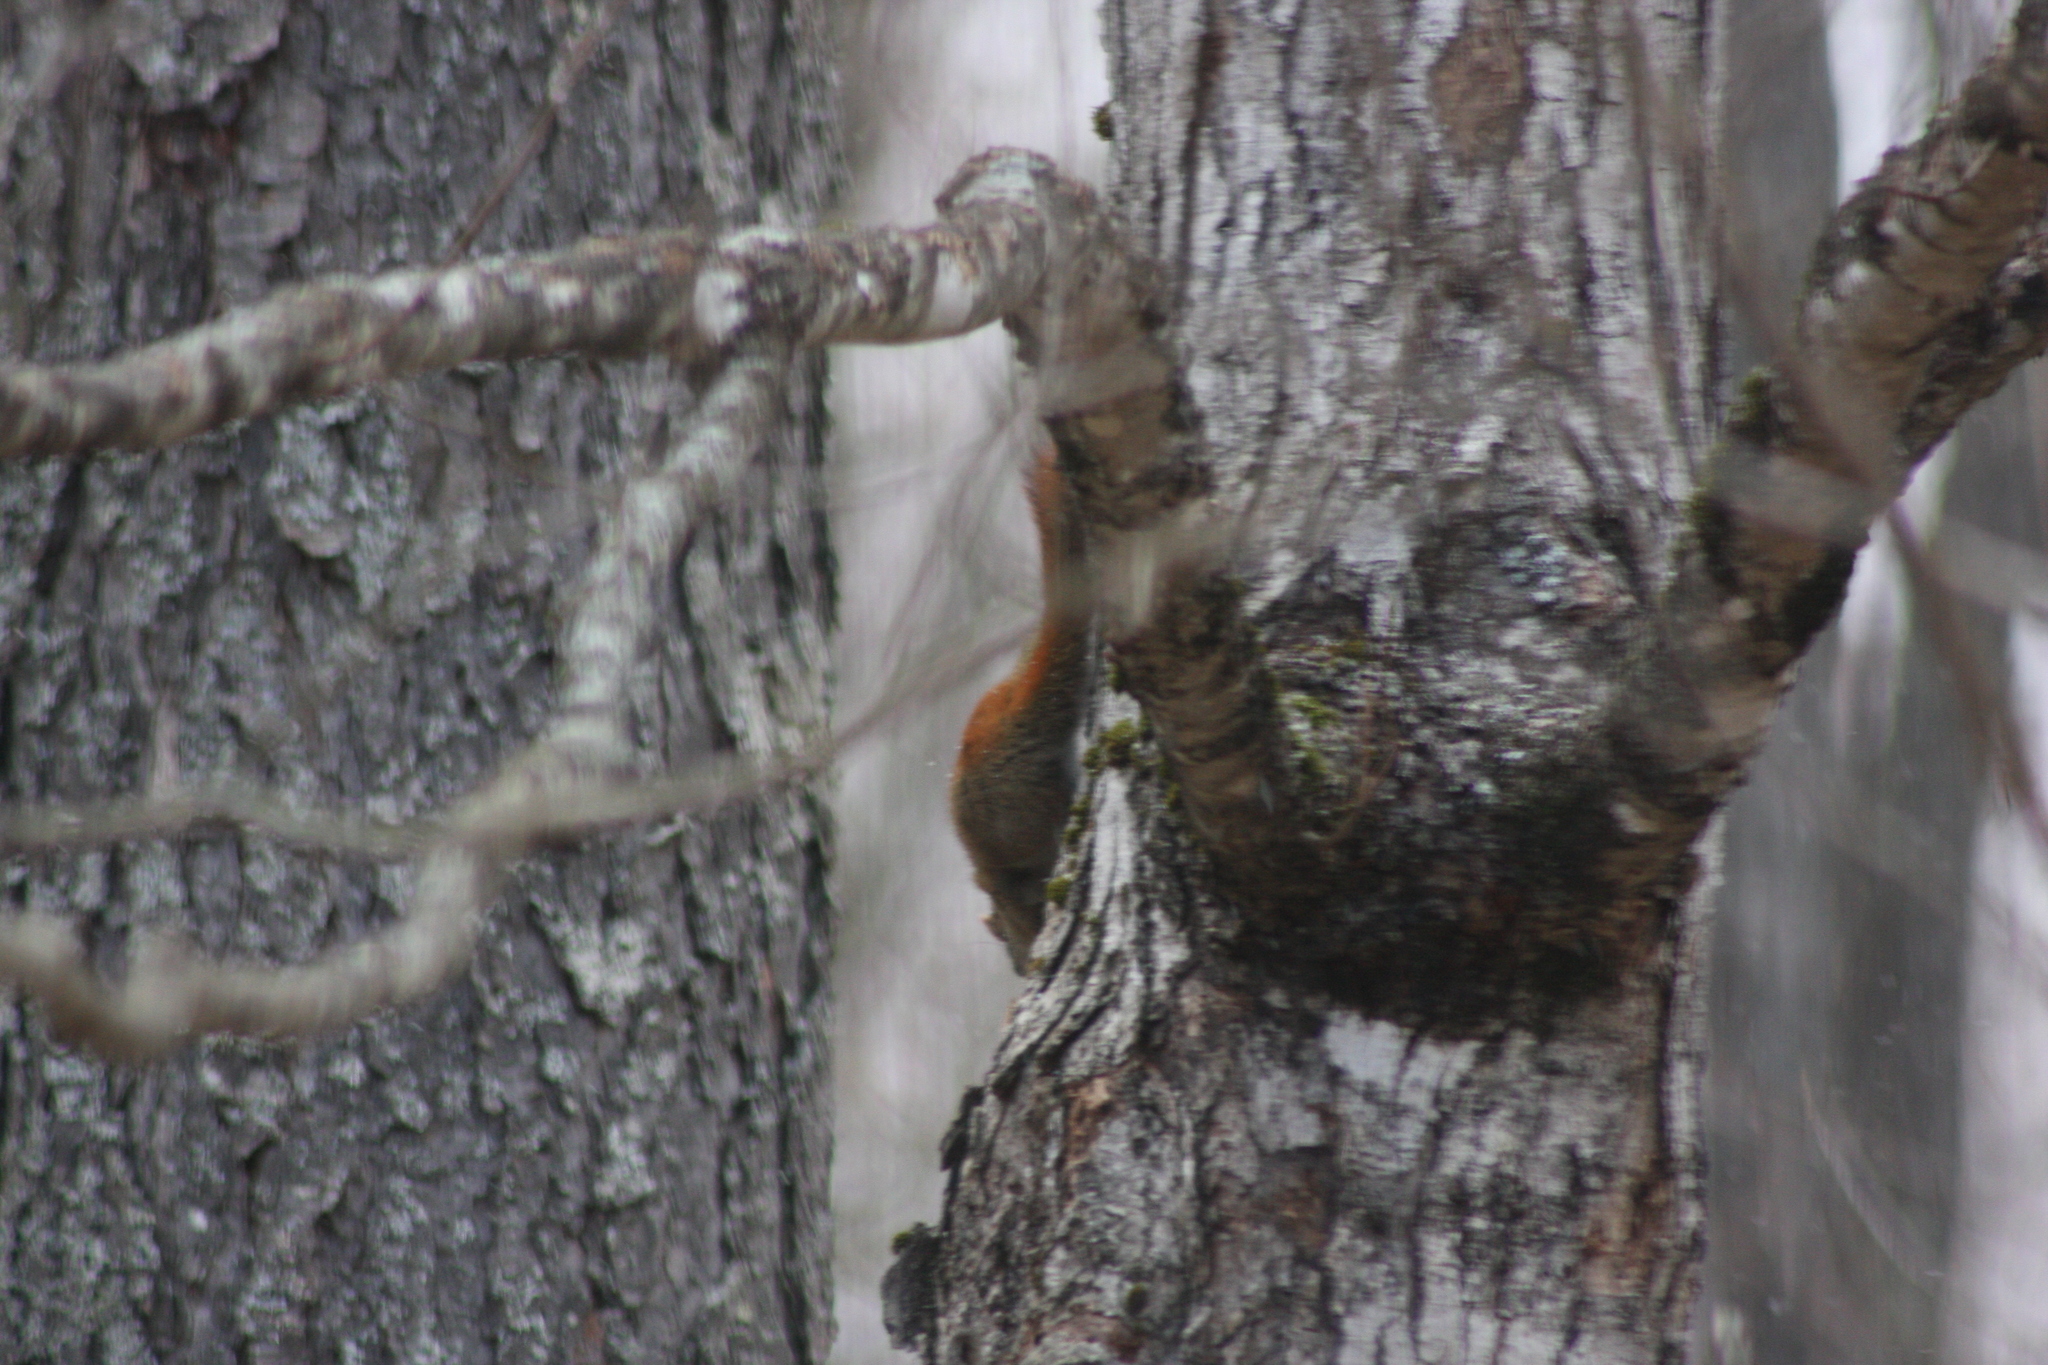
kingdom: Animalia
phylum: Chordata
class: Mammalia
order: Rodentia
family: Sciuridae
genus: Tamiasciurus
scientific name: Tamiasciurus hudsonicus
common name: Red squirrel
